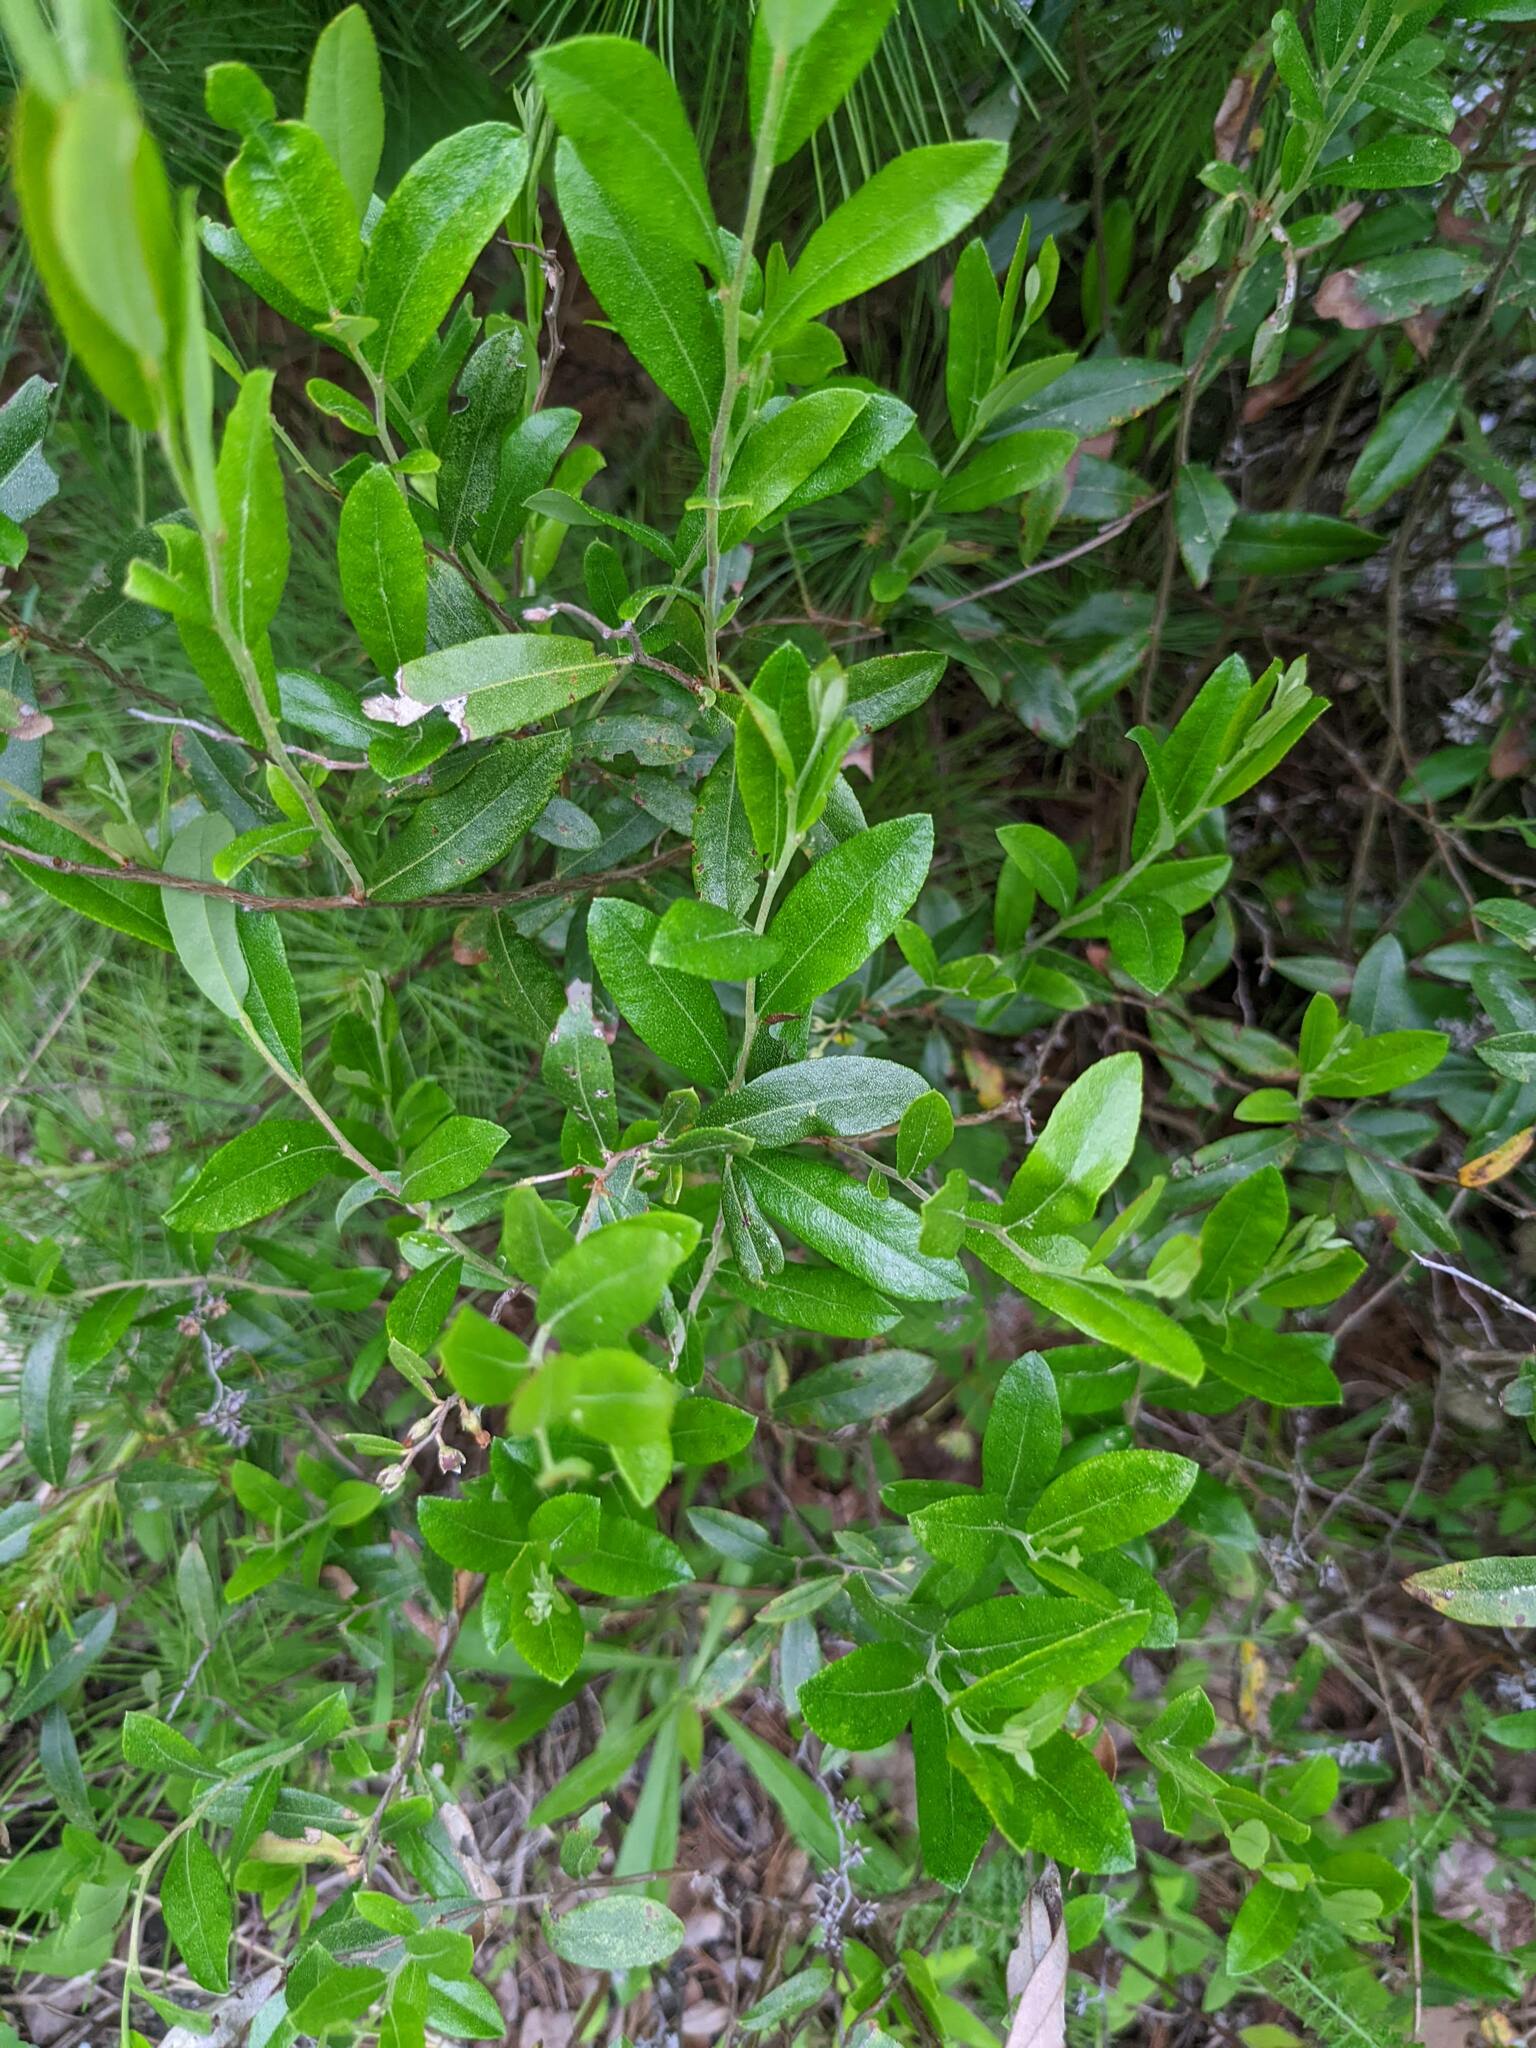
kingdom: Plantae
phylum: Tracheophyta
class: Magnoliopsida
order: Ericales
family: Ericaceae
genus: Chamaedaphne
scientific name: Chamaedaphne calyculata
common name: Leatherleaf
